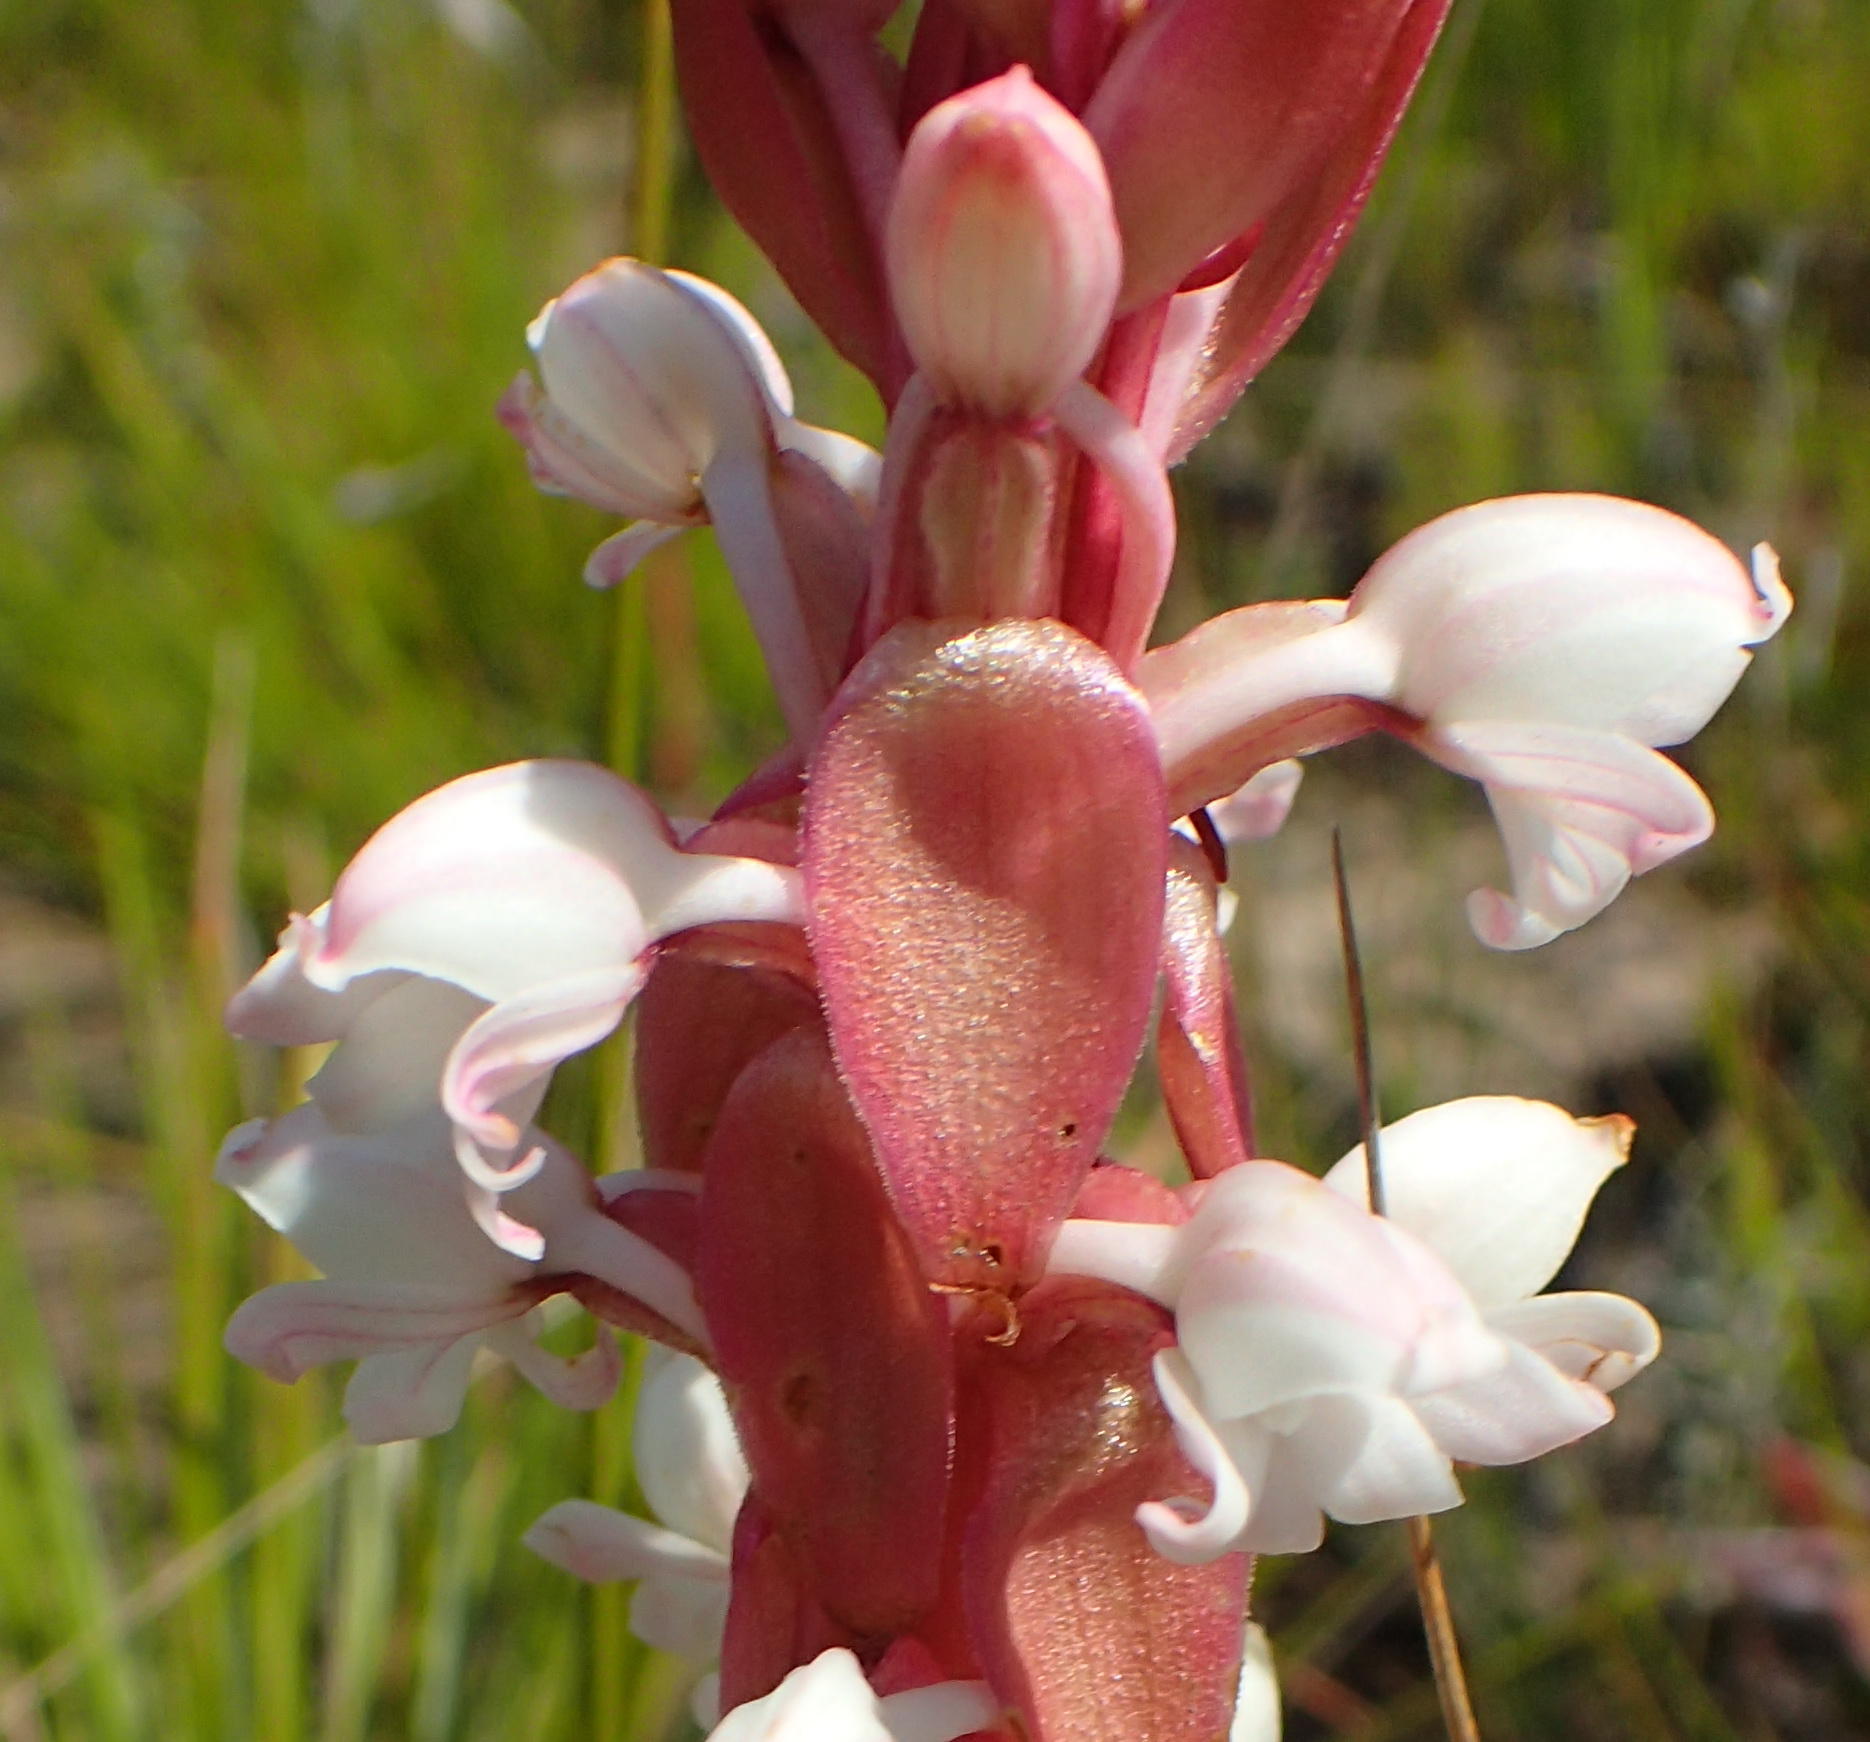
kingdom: Plantae
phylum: Tracheophyta
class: Liliopsida
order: Asparagales
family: Orchidaceae
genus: Satyrium
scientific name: Satyrium acuminatum
